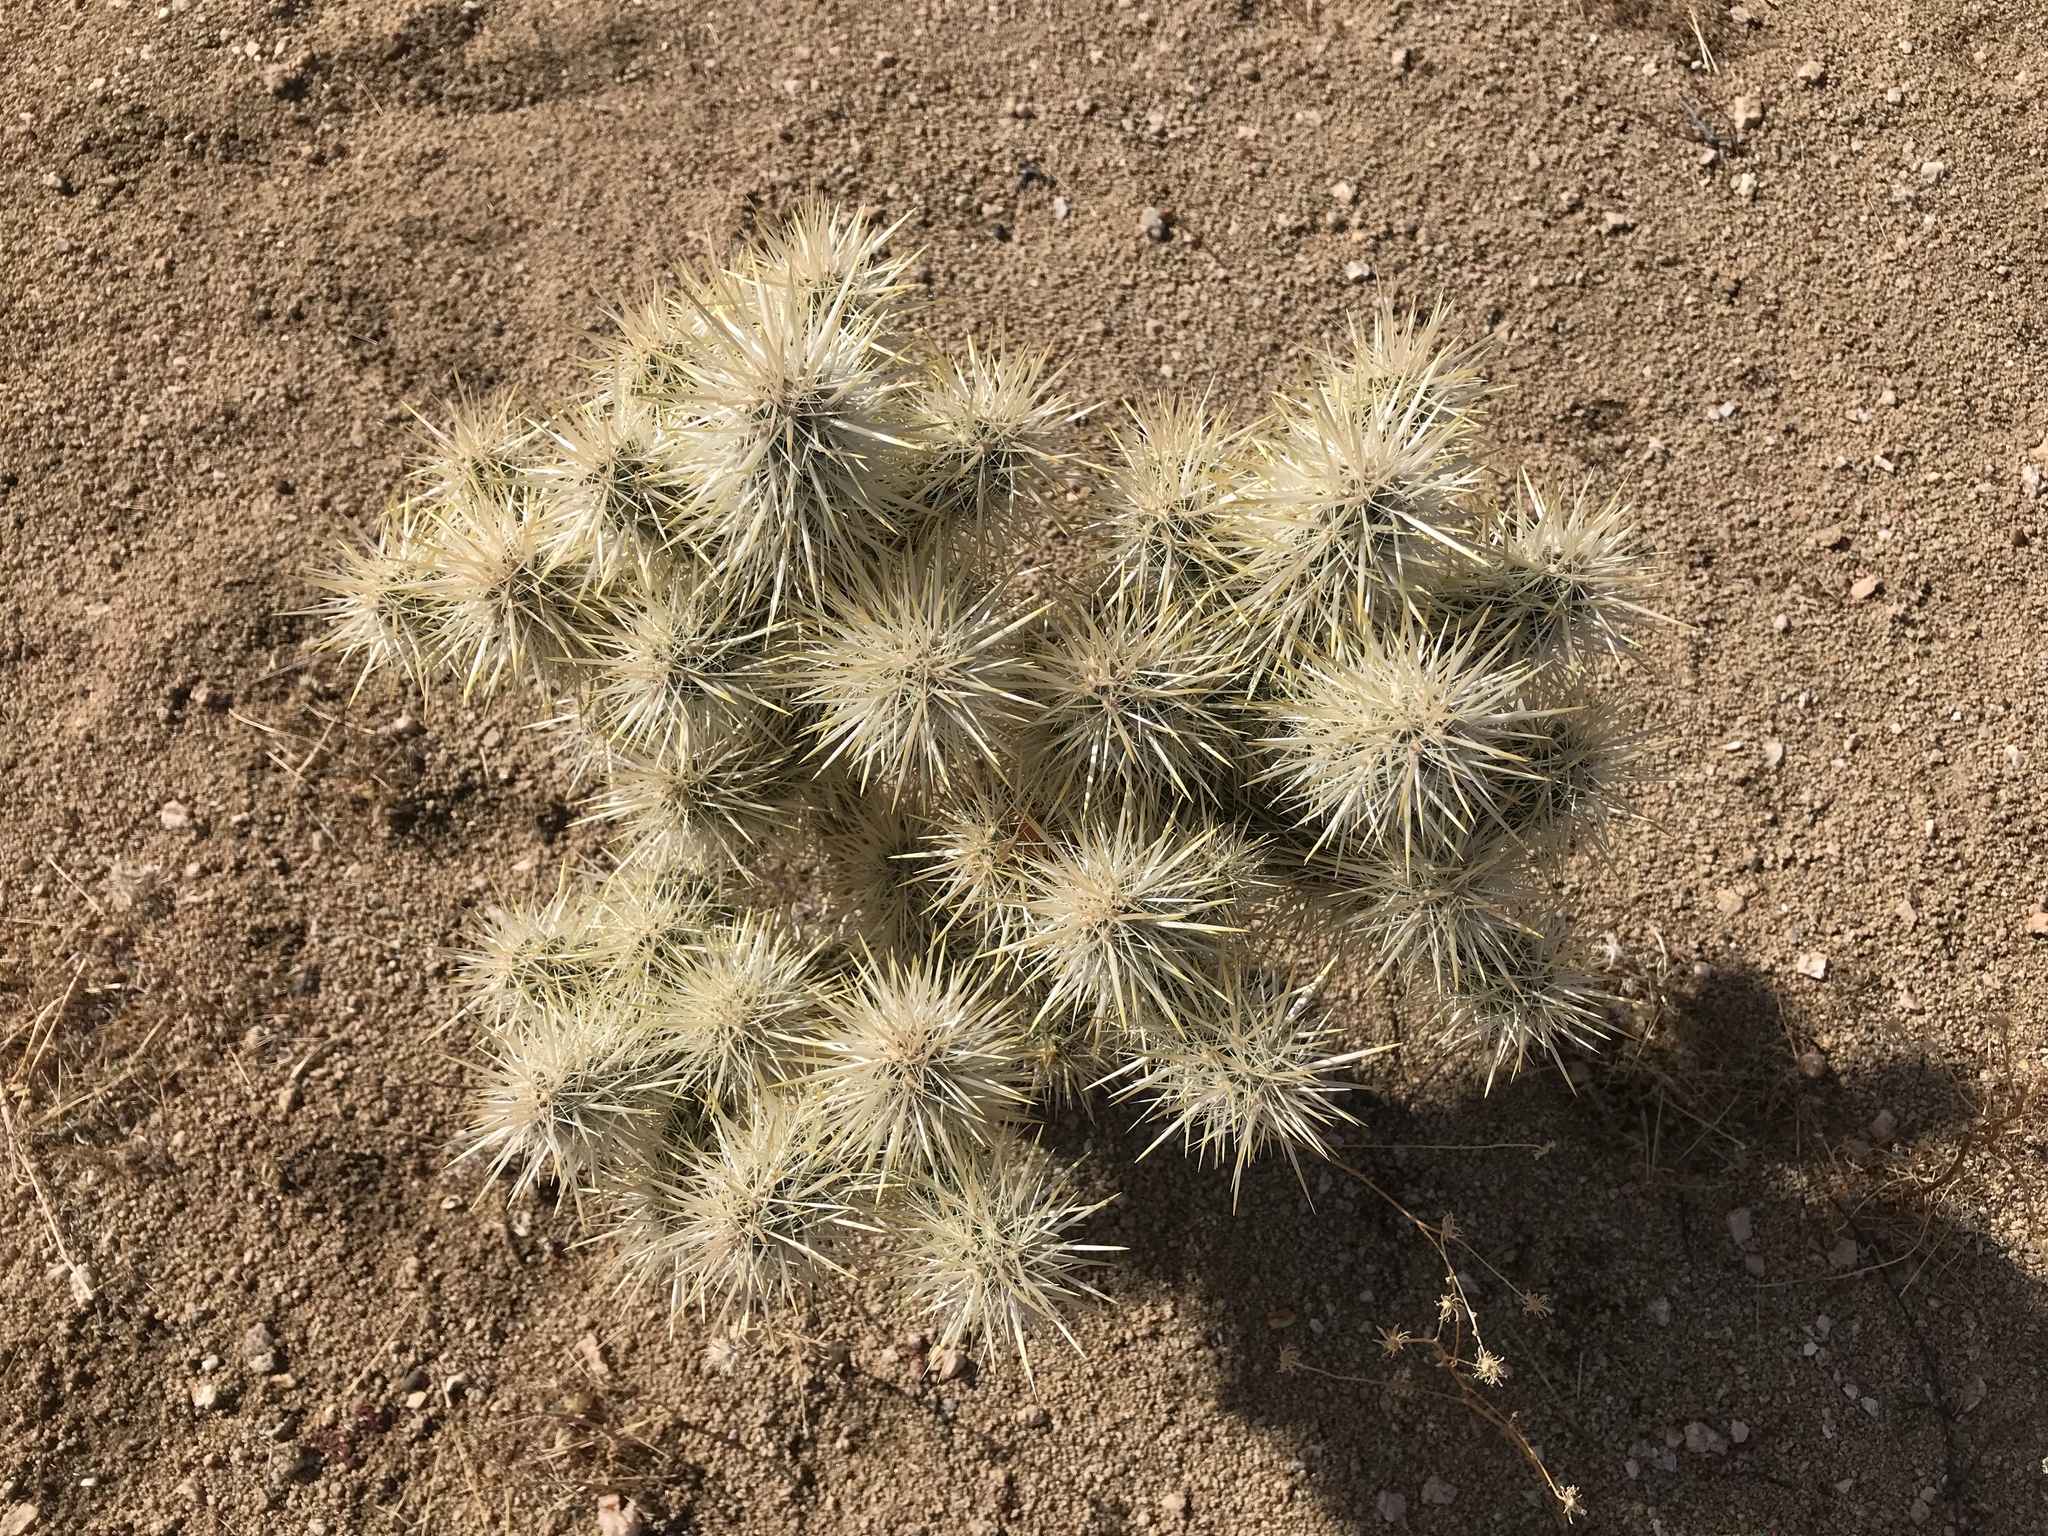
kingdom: Plantae
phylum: Tracheophyta
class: Magnoliopsida
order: Caryophyllales
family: Cactaceae
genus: Cylindropuntia
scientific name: Cylindropuntia echinocarpa
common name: Ground cholla
